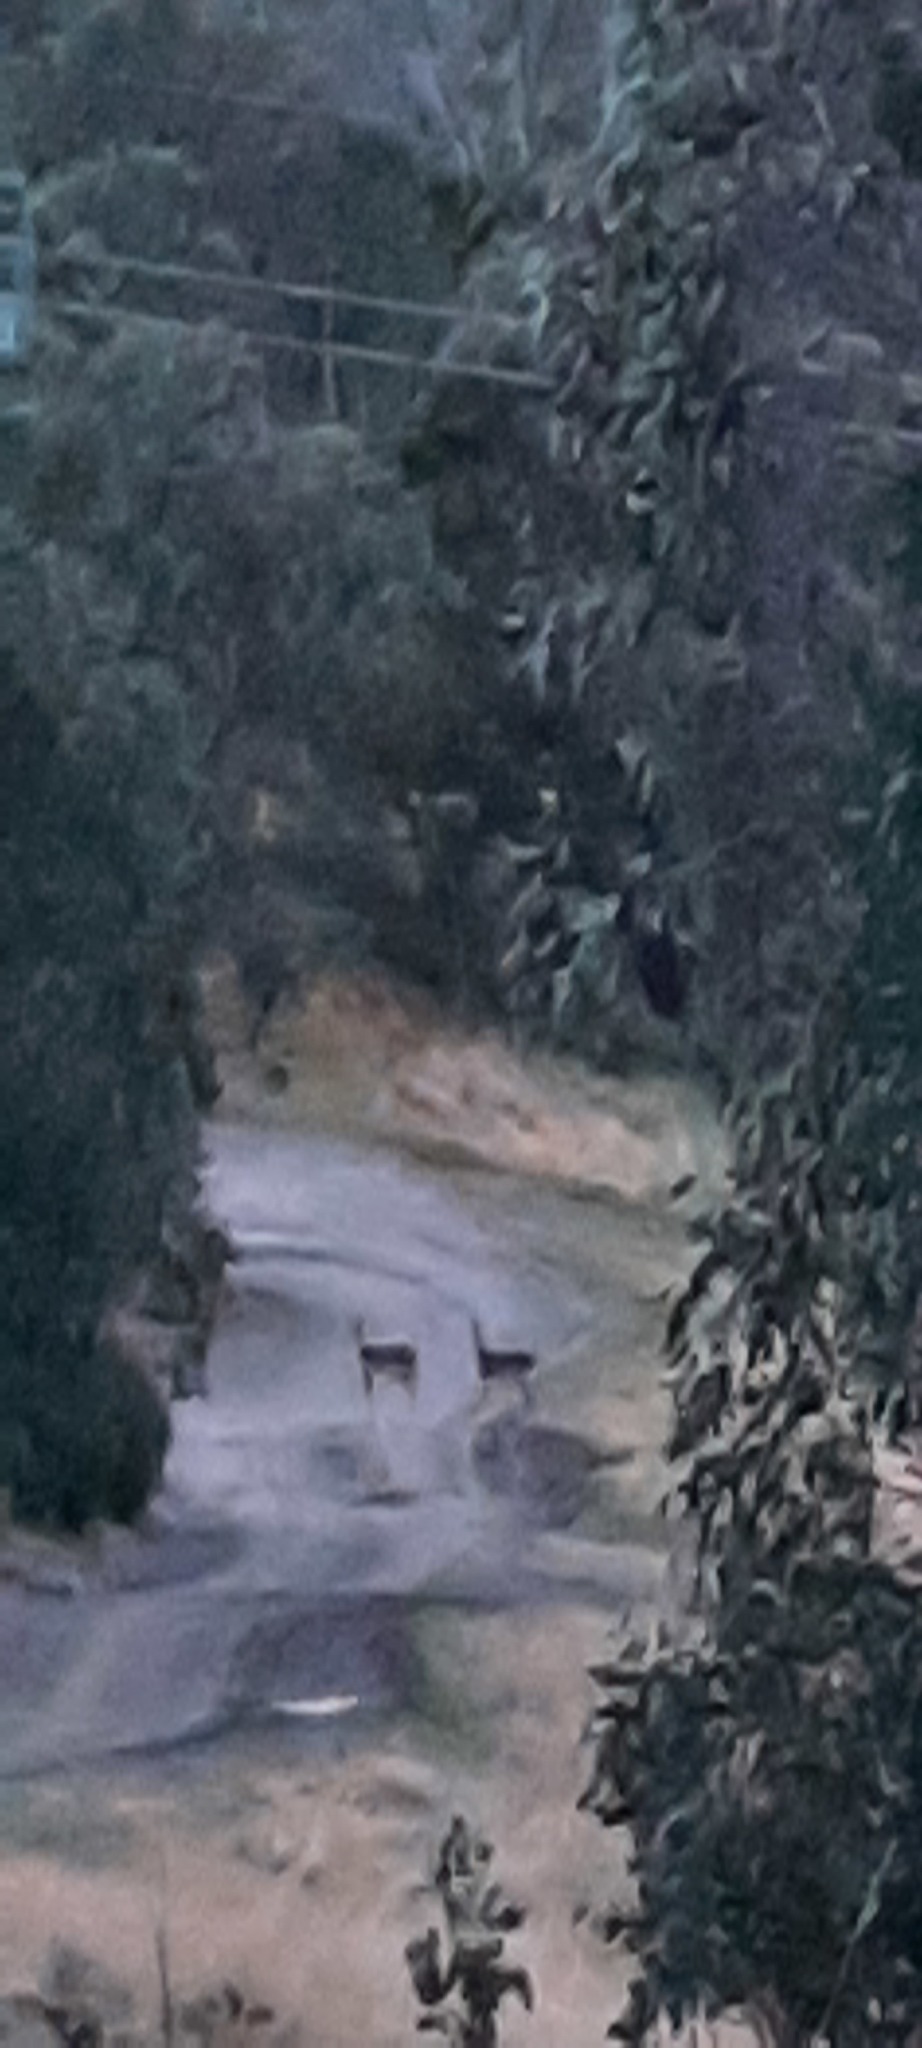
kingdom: Animalia
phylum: Chordata
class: Mammalia
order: Artiodactyla
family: Cervidae
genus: Dama
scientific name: Dama dama
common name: Fallow deer
